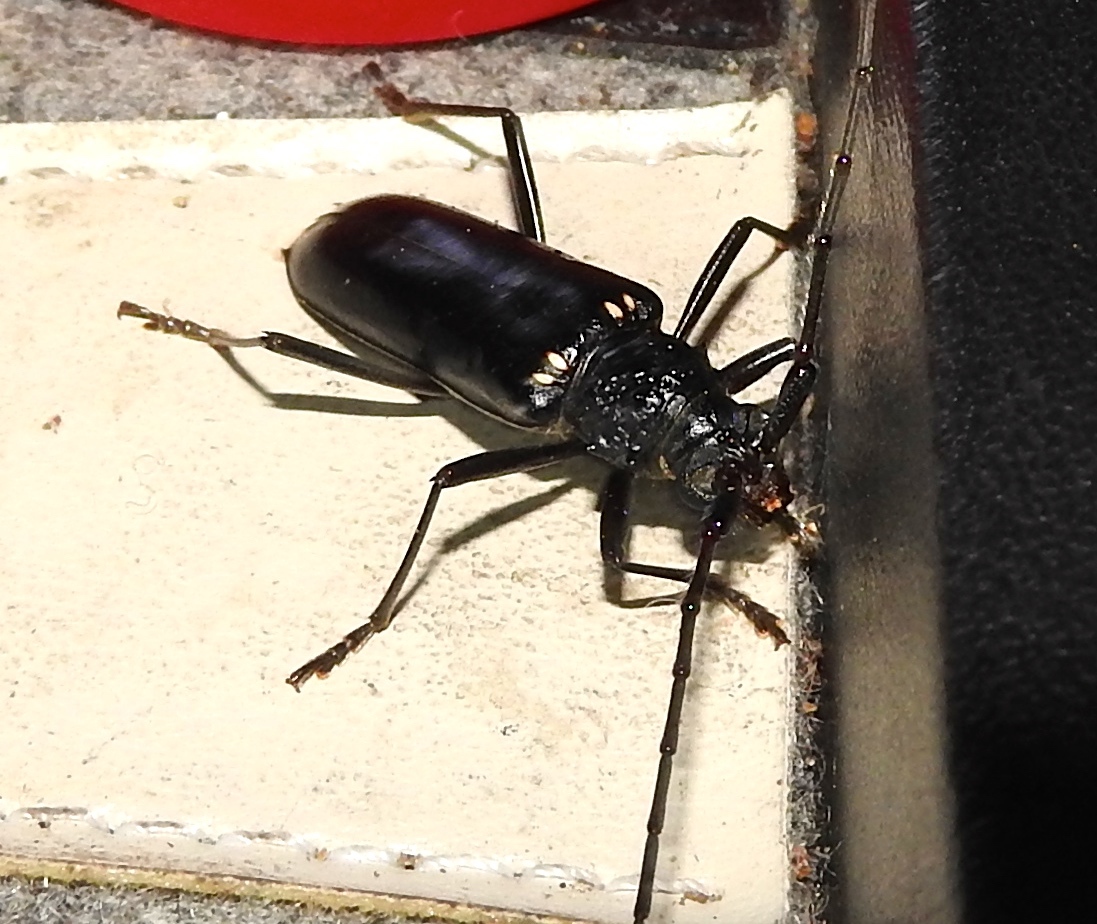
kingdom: Animalia
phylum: Arthropoda
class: Insecta
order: Coleoptera
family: Cerambycidae
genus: Susuacanga
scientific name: Susuacanga
